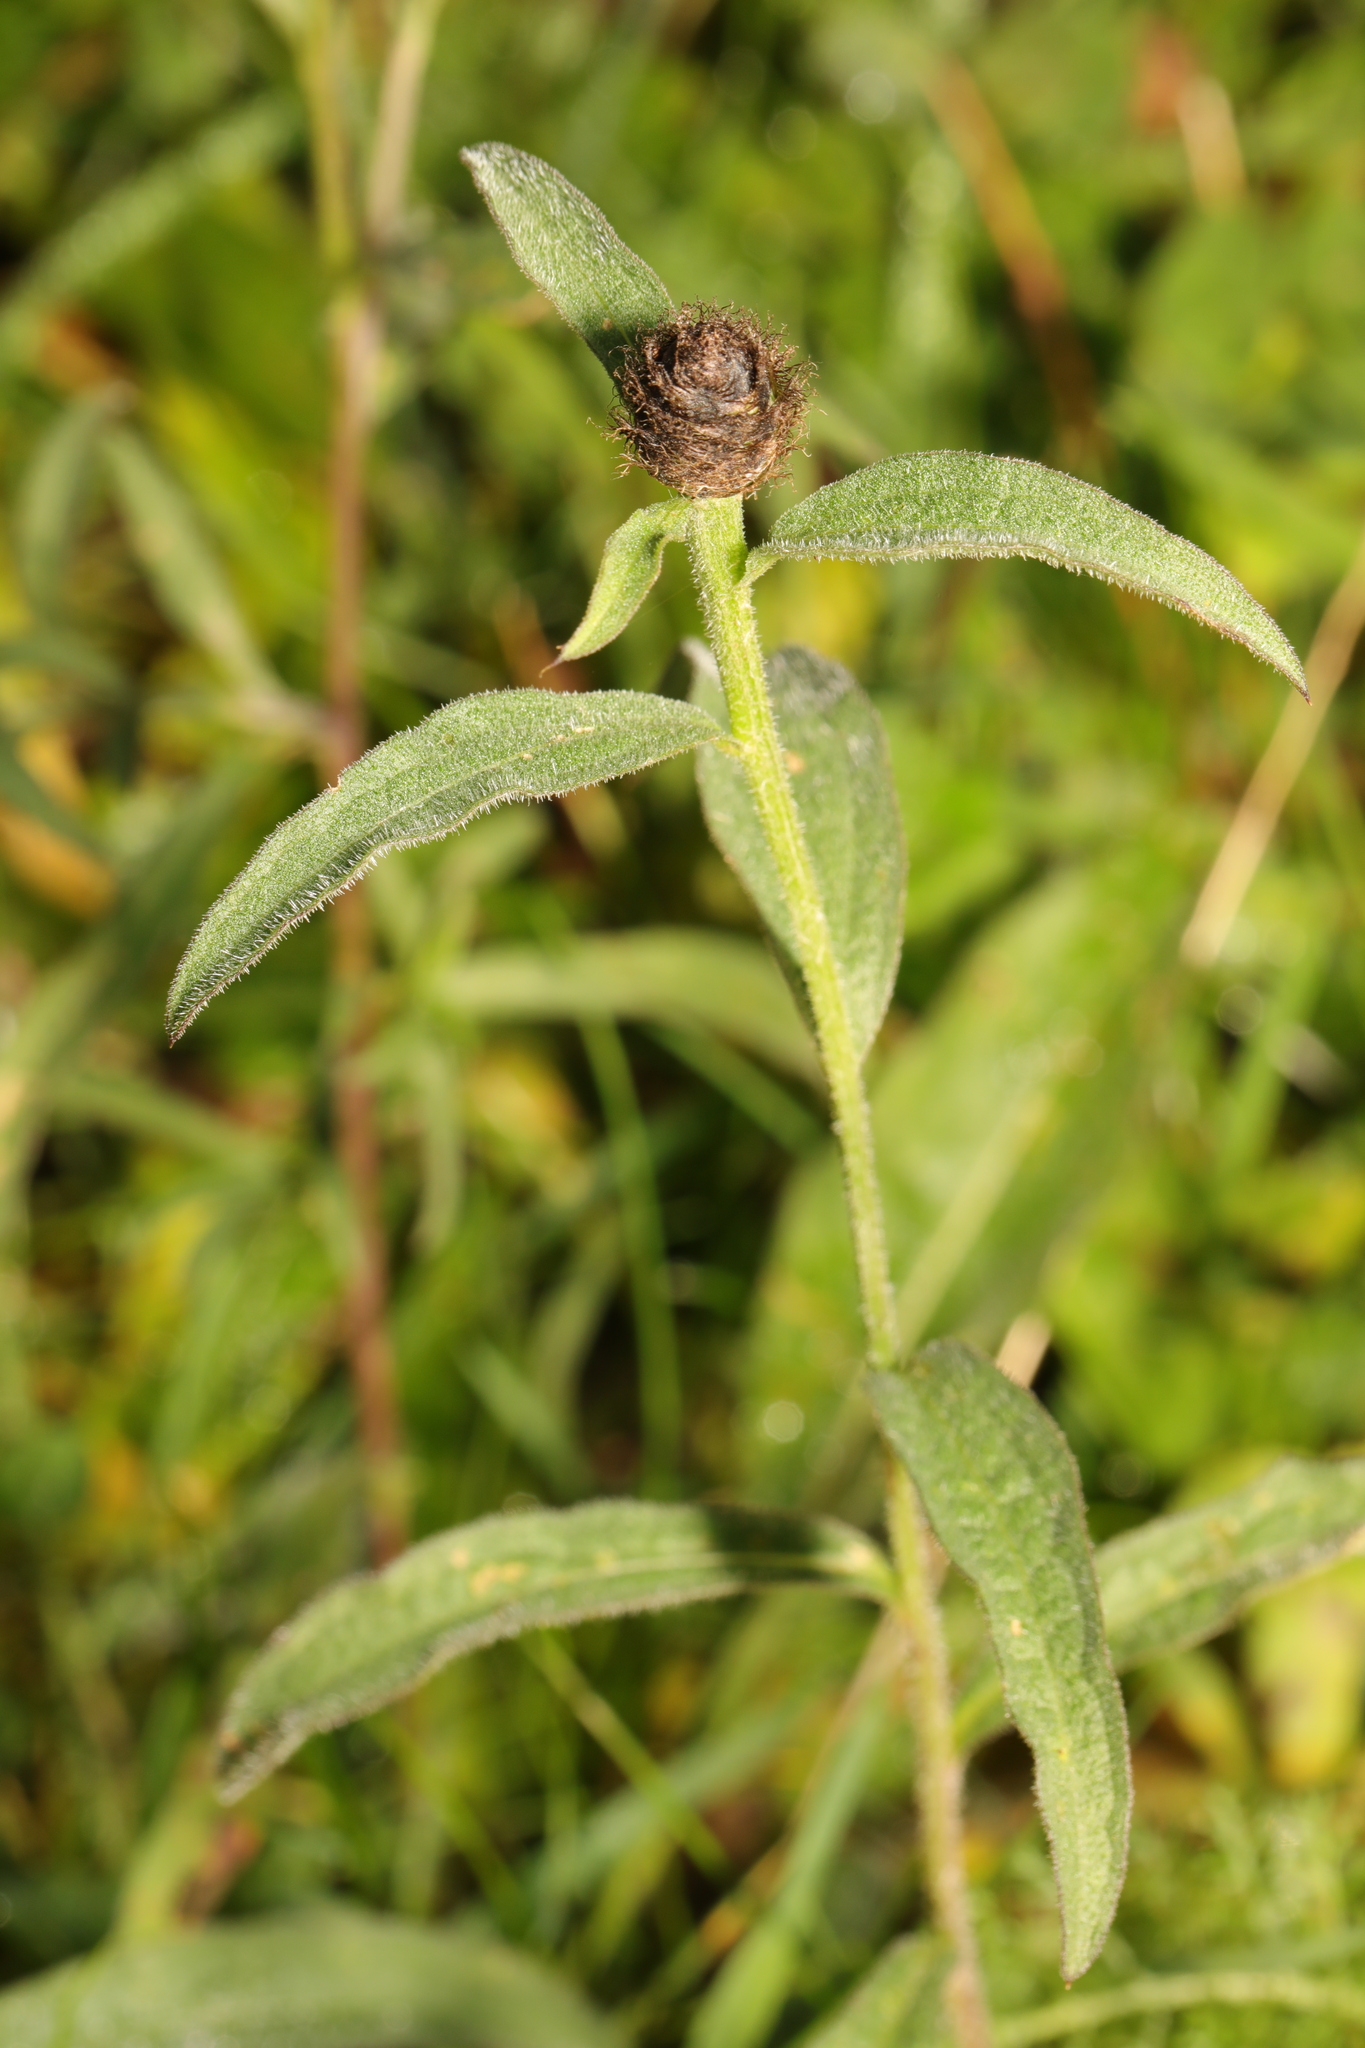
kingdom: Plantae
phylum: Tracheophyta
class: Magnoliopsida
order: Asterales
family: Asteraceae
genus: Centaurea
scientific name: Centaurea nigra
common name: Lesser knapweed
